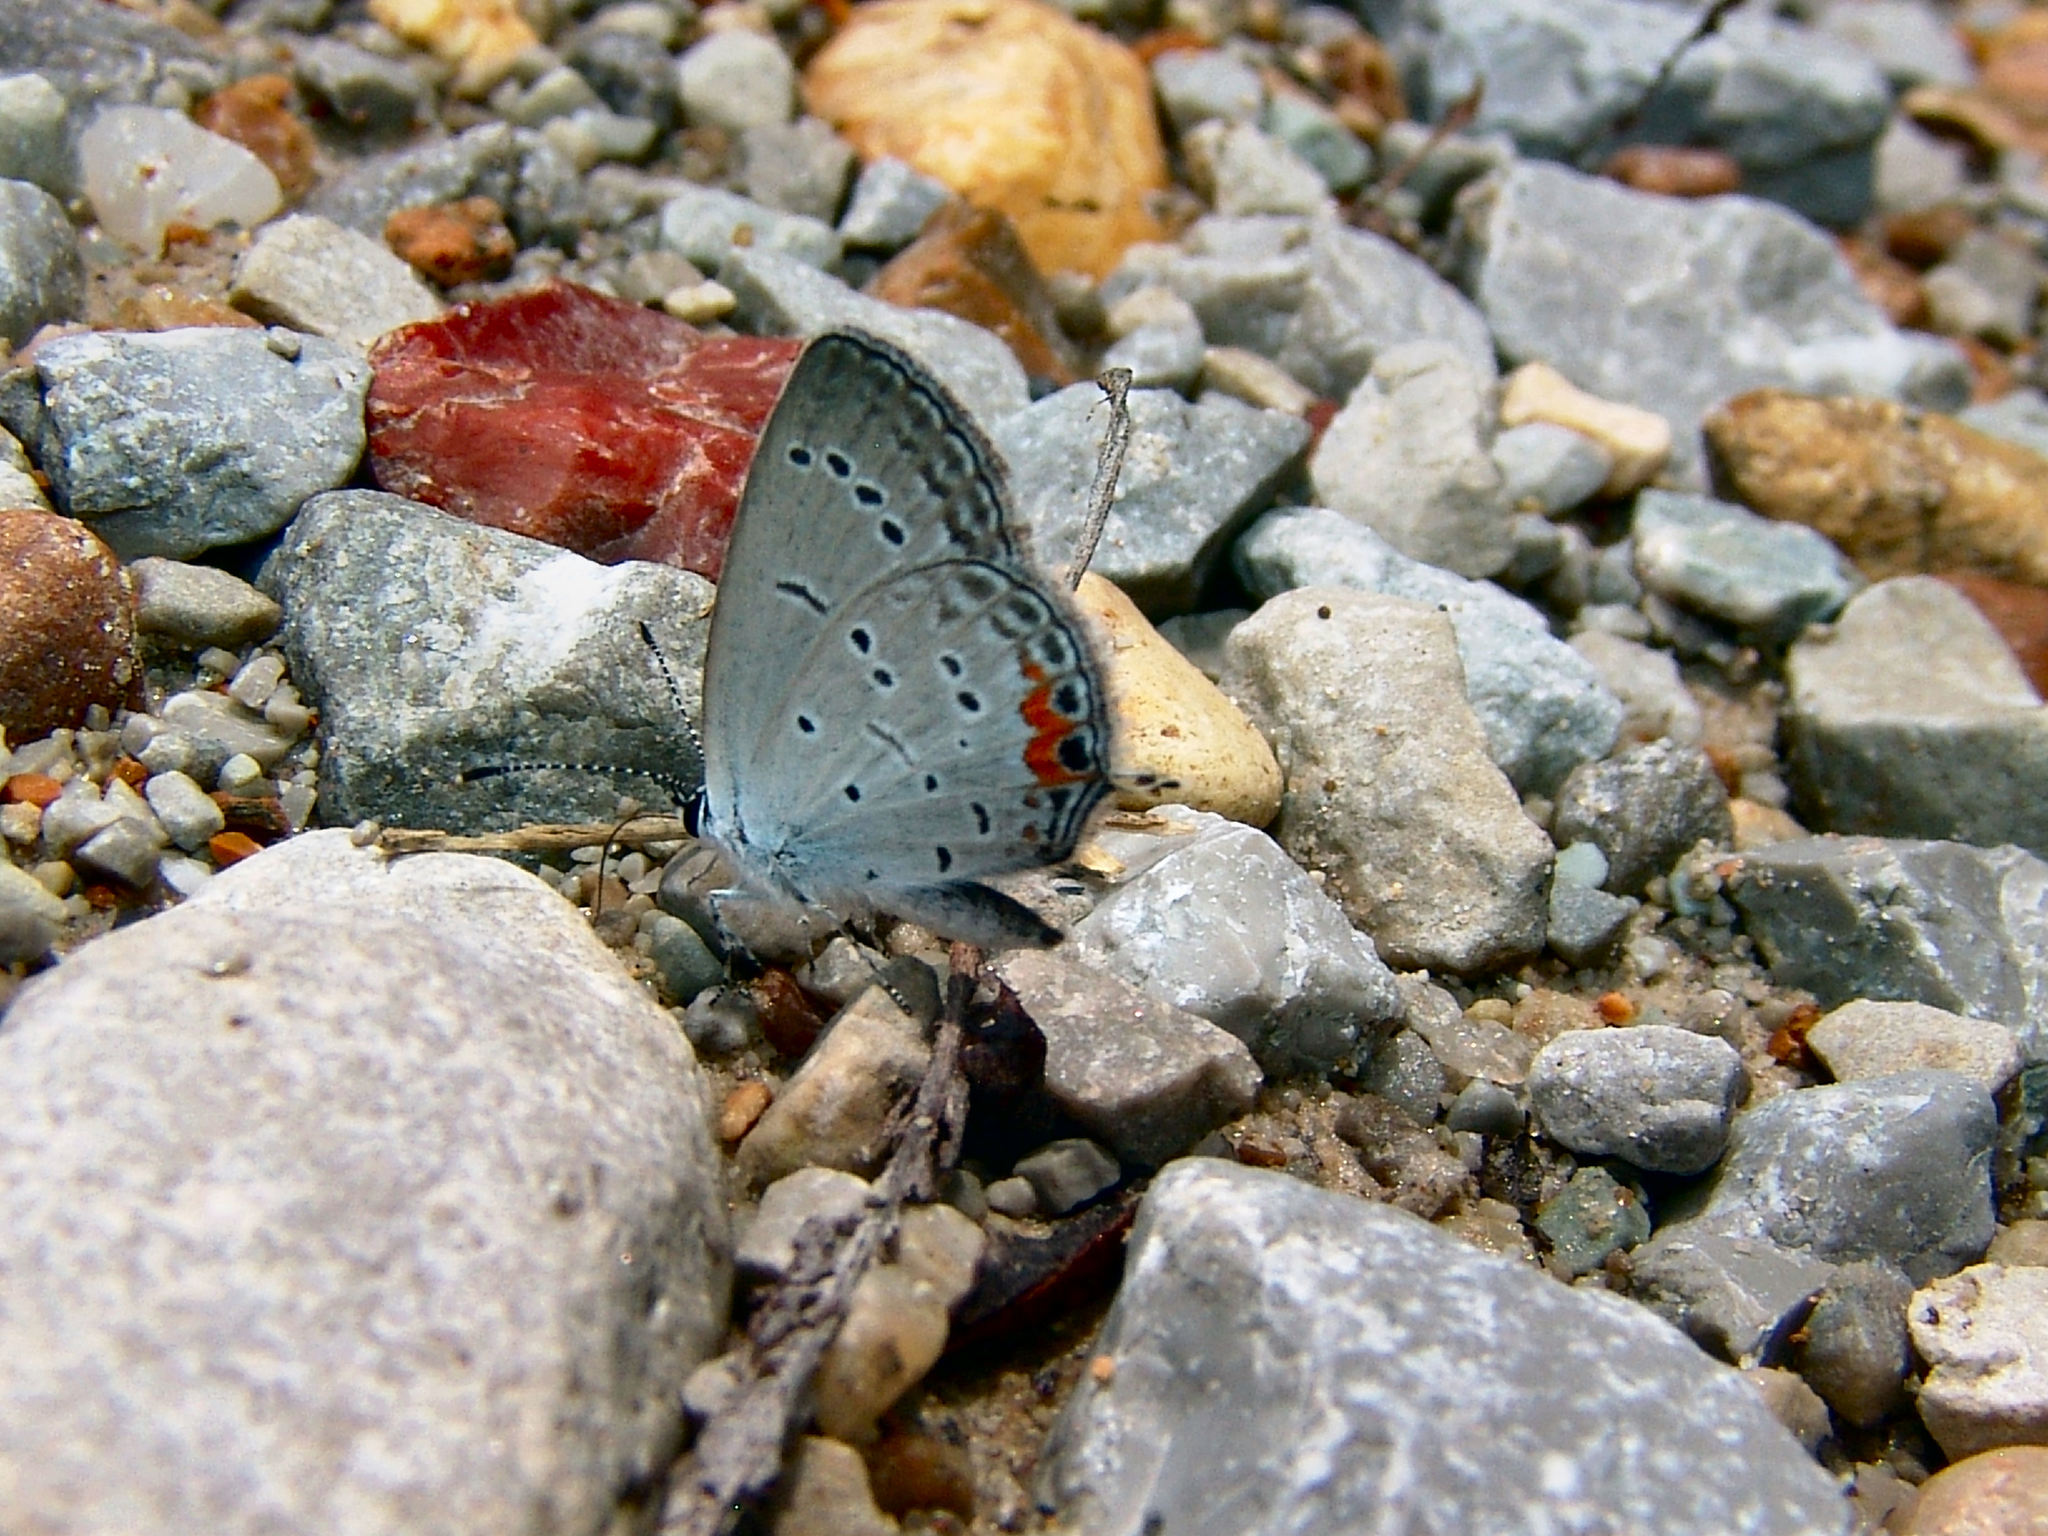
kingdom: Animalia
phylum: Arthropoda
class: Insecta
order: Lepidoptera
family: Lycaenidae
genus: Elkalyce
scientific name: Elkalyce comyntas
